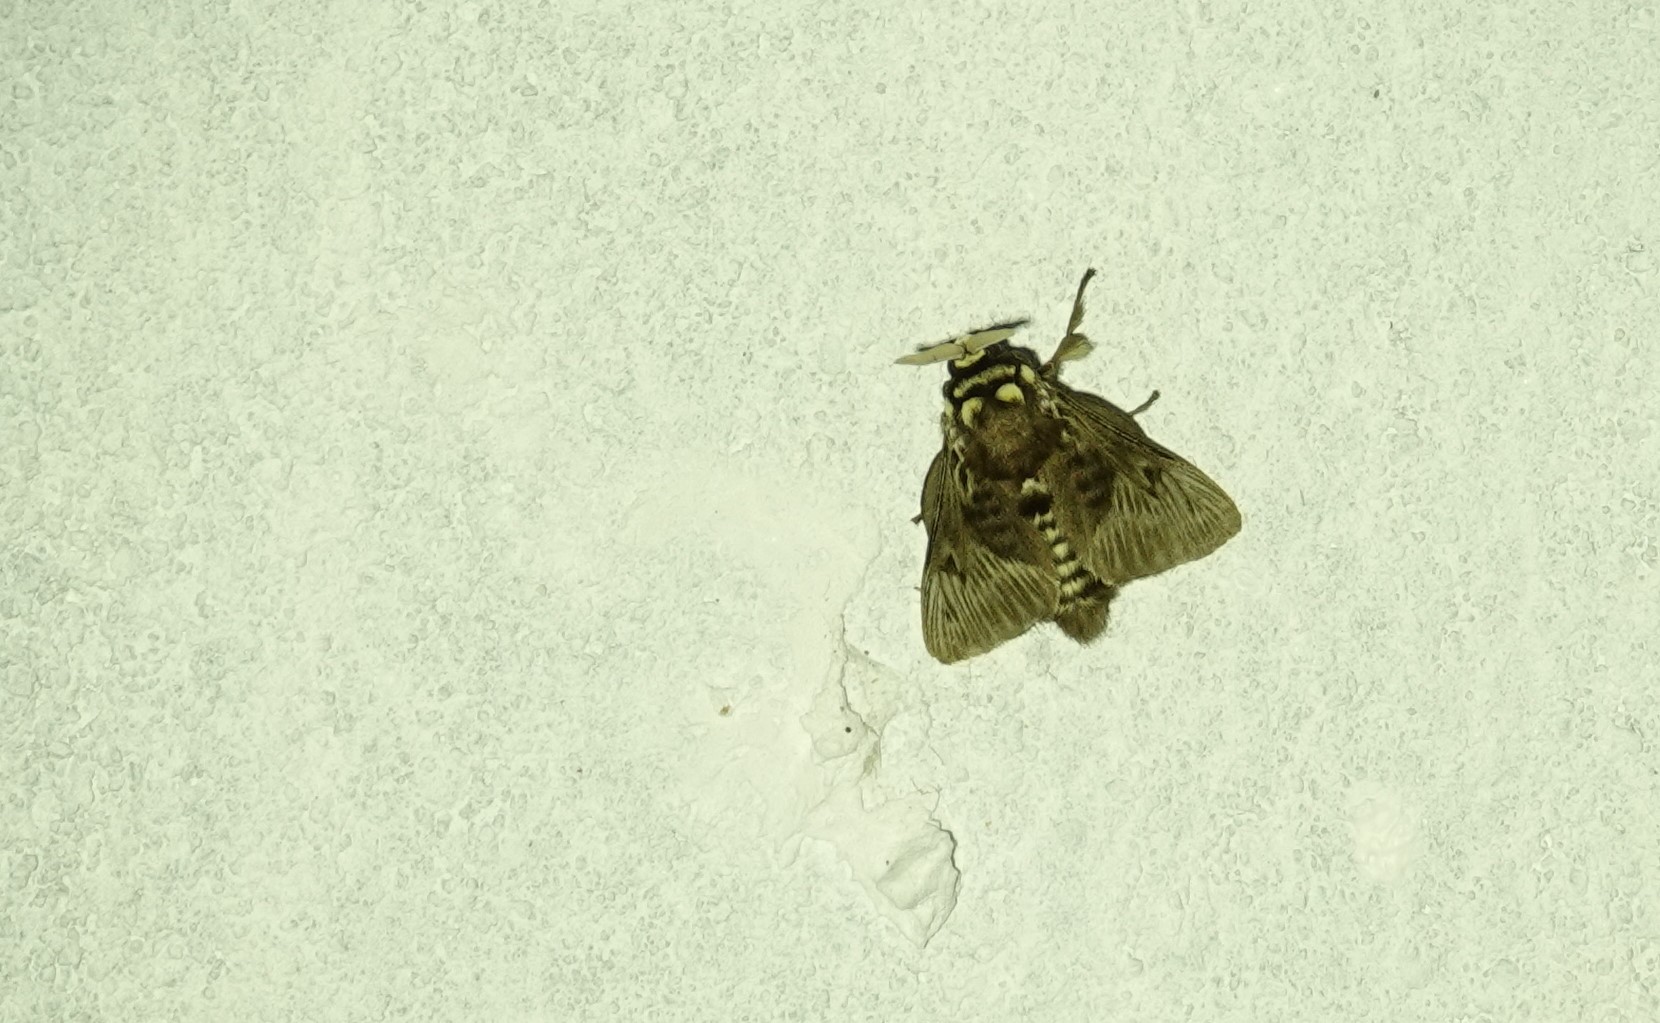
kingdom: Animalia
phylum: Arthropoda
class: Insecta
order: Lepidoptera
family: Megalopygidae
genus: Megalopyge
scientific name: Megalopyge albicollis
